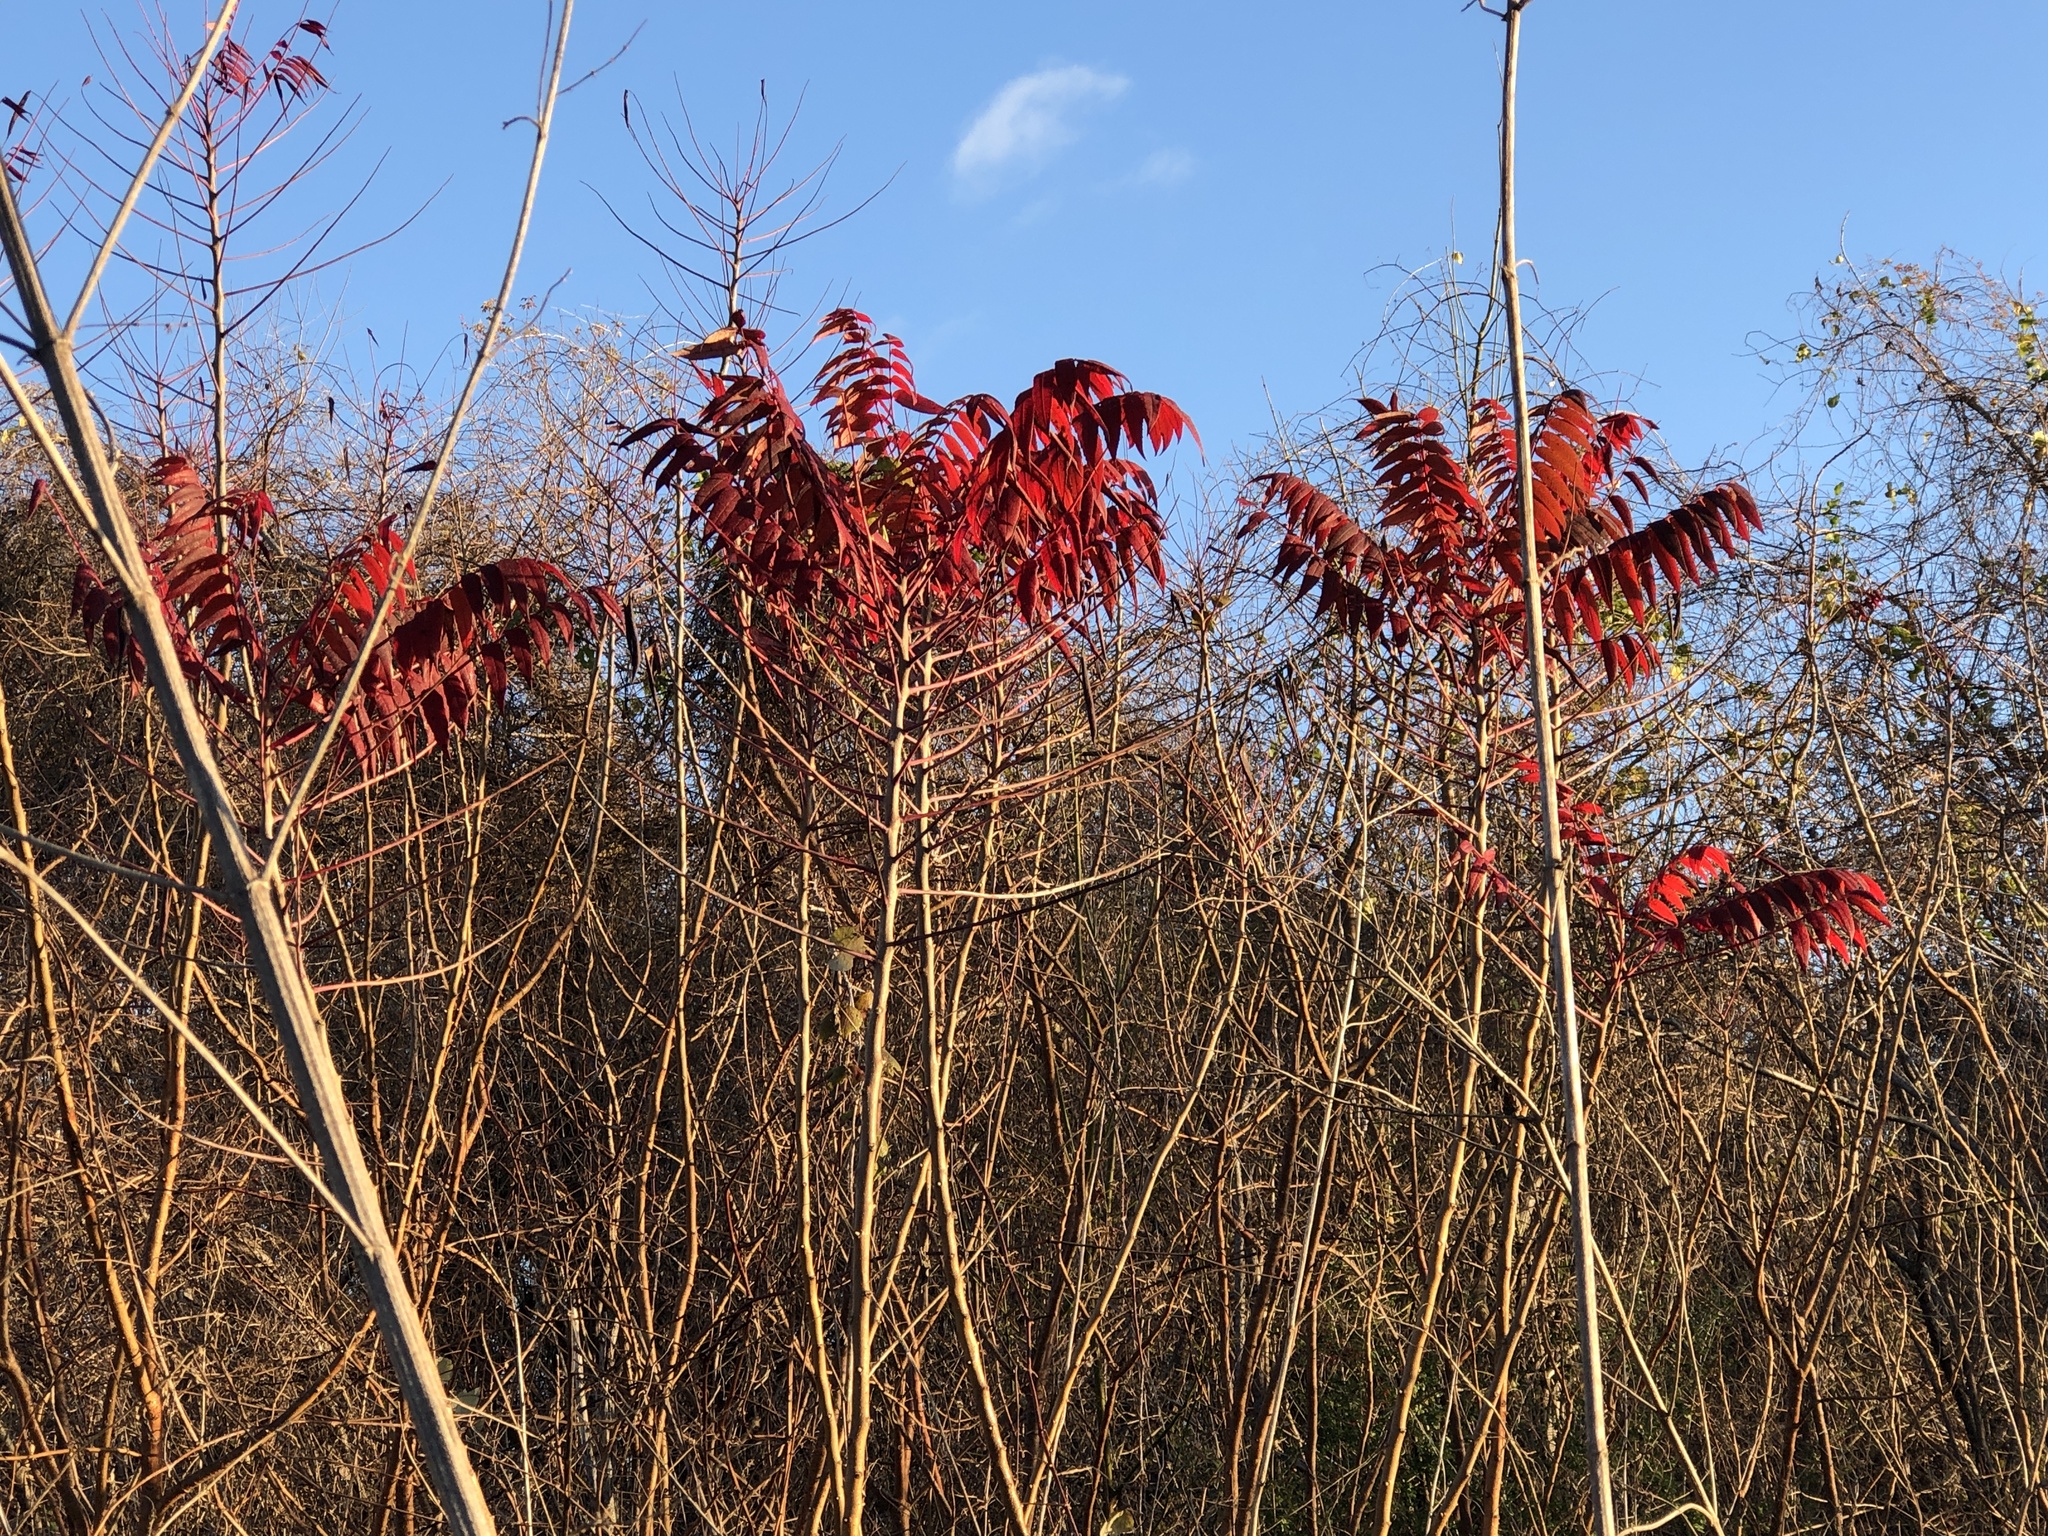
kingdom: Plantae
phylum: Tracheophyta
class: Magnoliopsida
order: Sapindales
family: Anacardiaceae
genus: Rhus
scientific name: Rhus glabra
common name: Scarlet sumac
